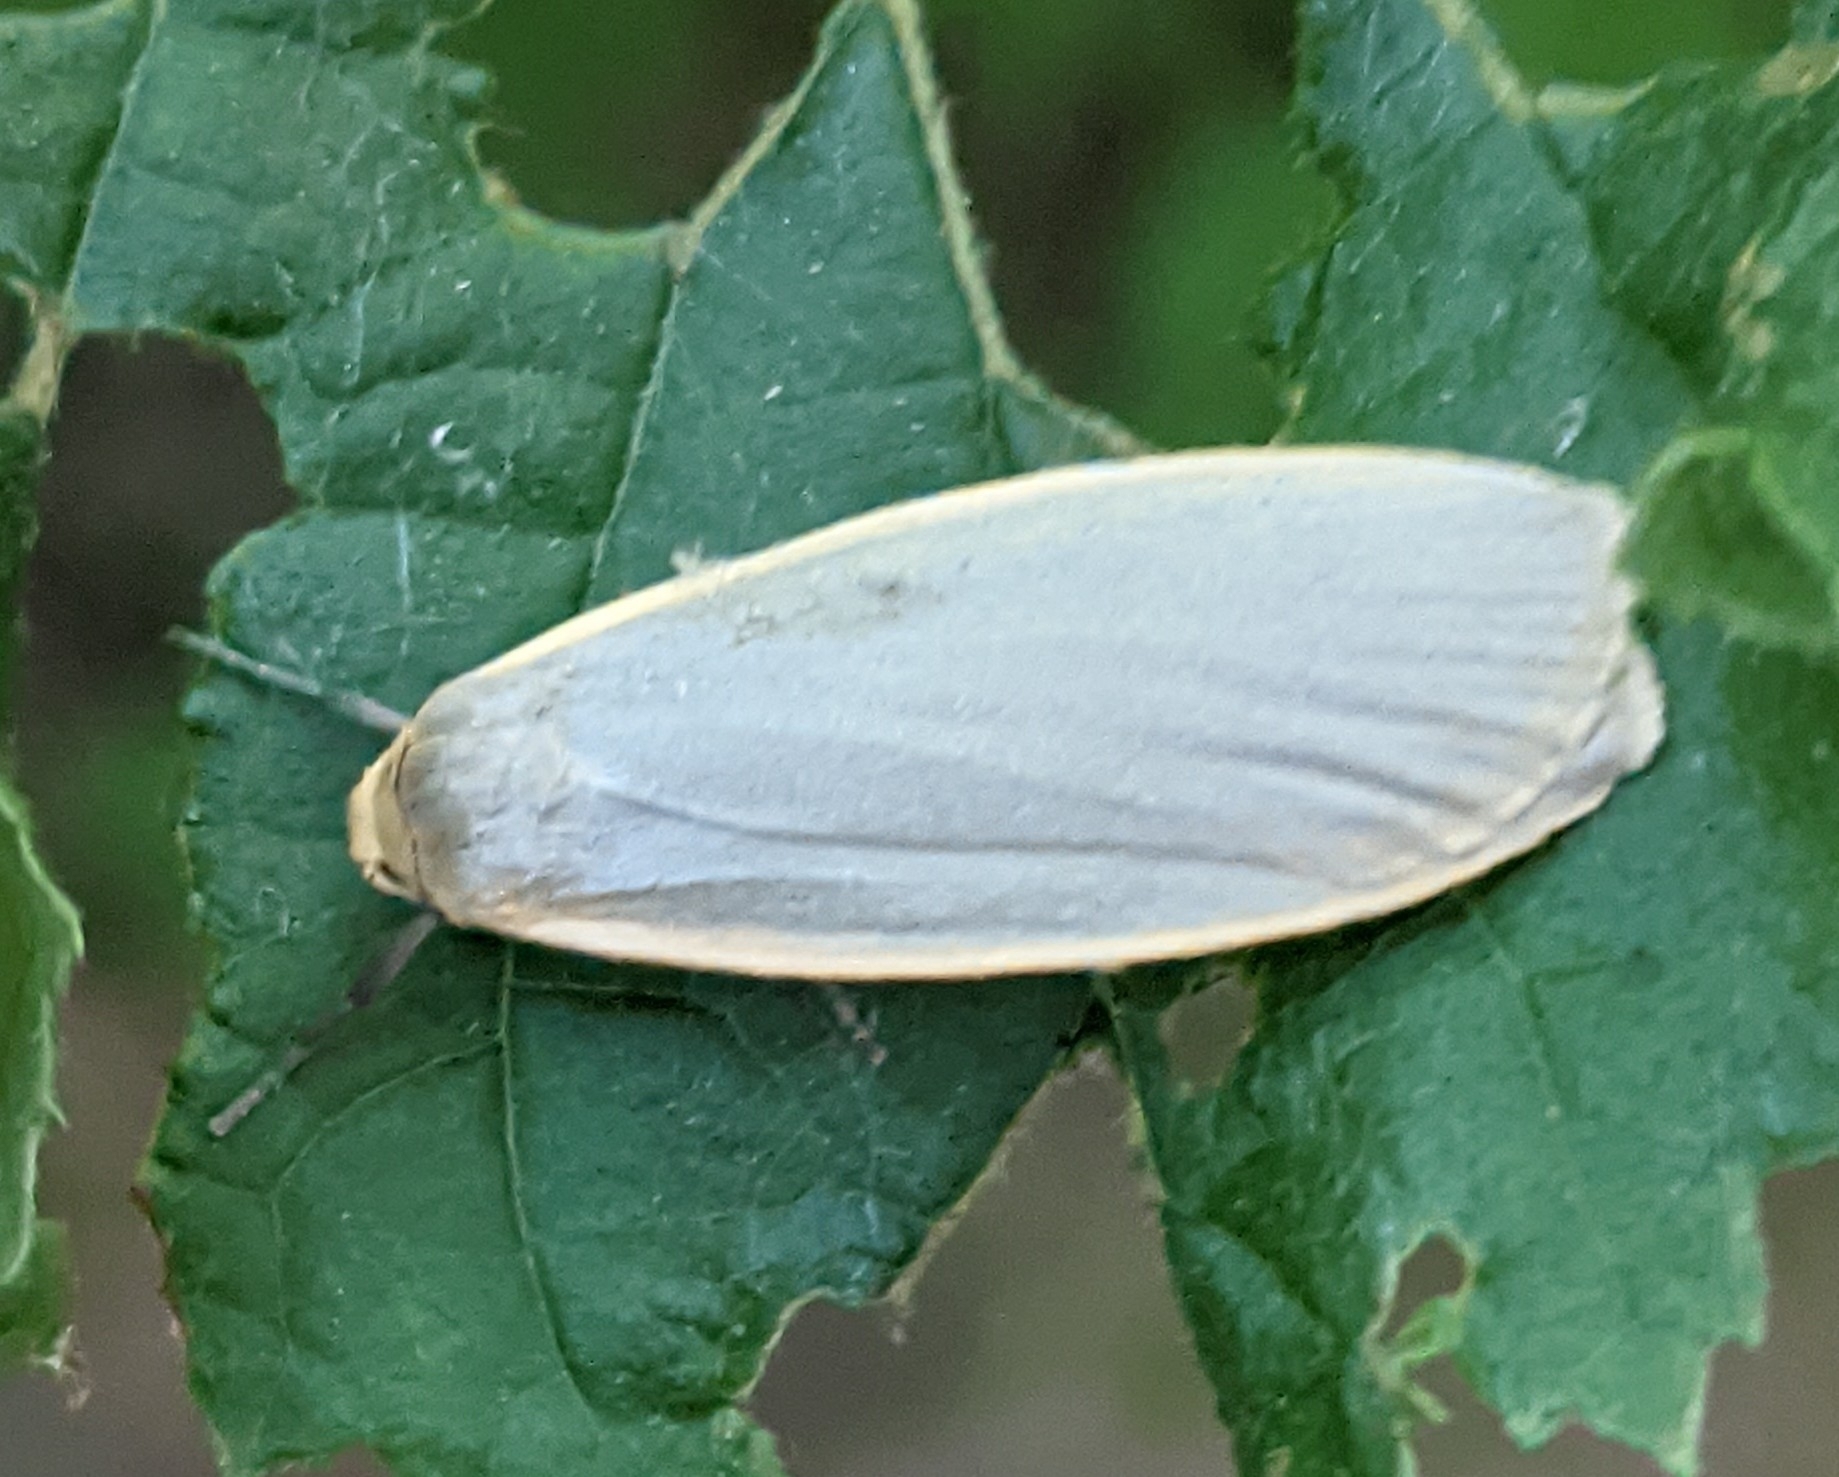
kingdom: Animalia
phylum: Arthropoda
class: Insecta
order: Lepidoptera
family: Erebidae
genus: Collita
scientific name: Collita griseola
